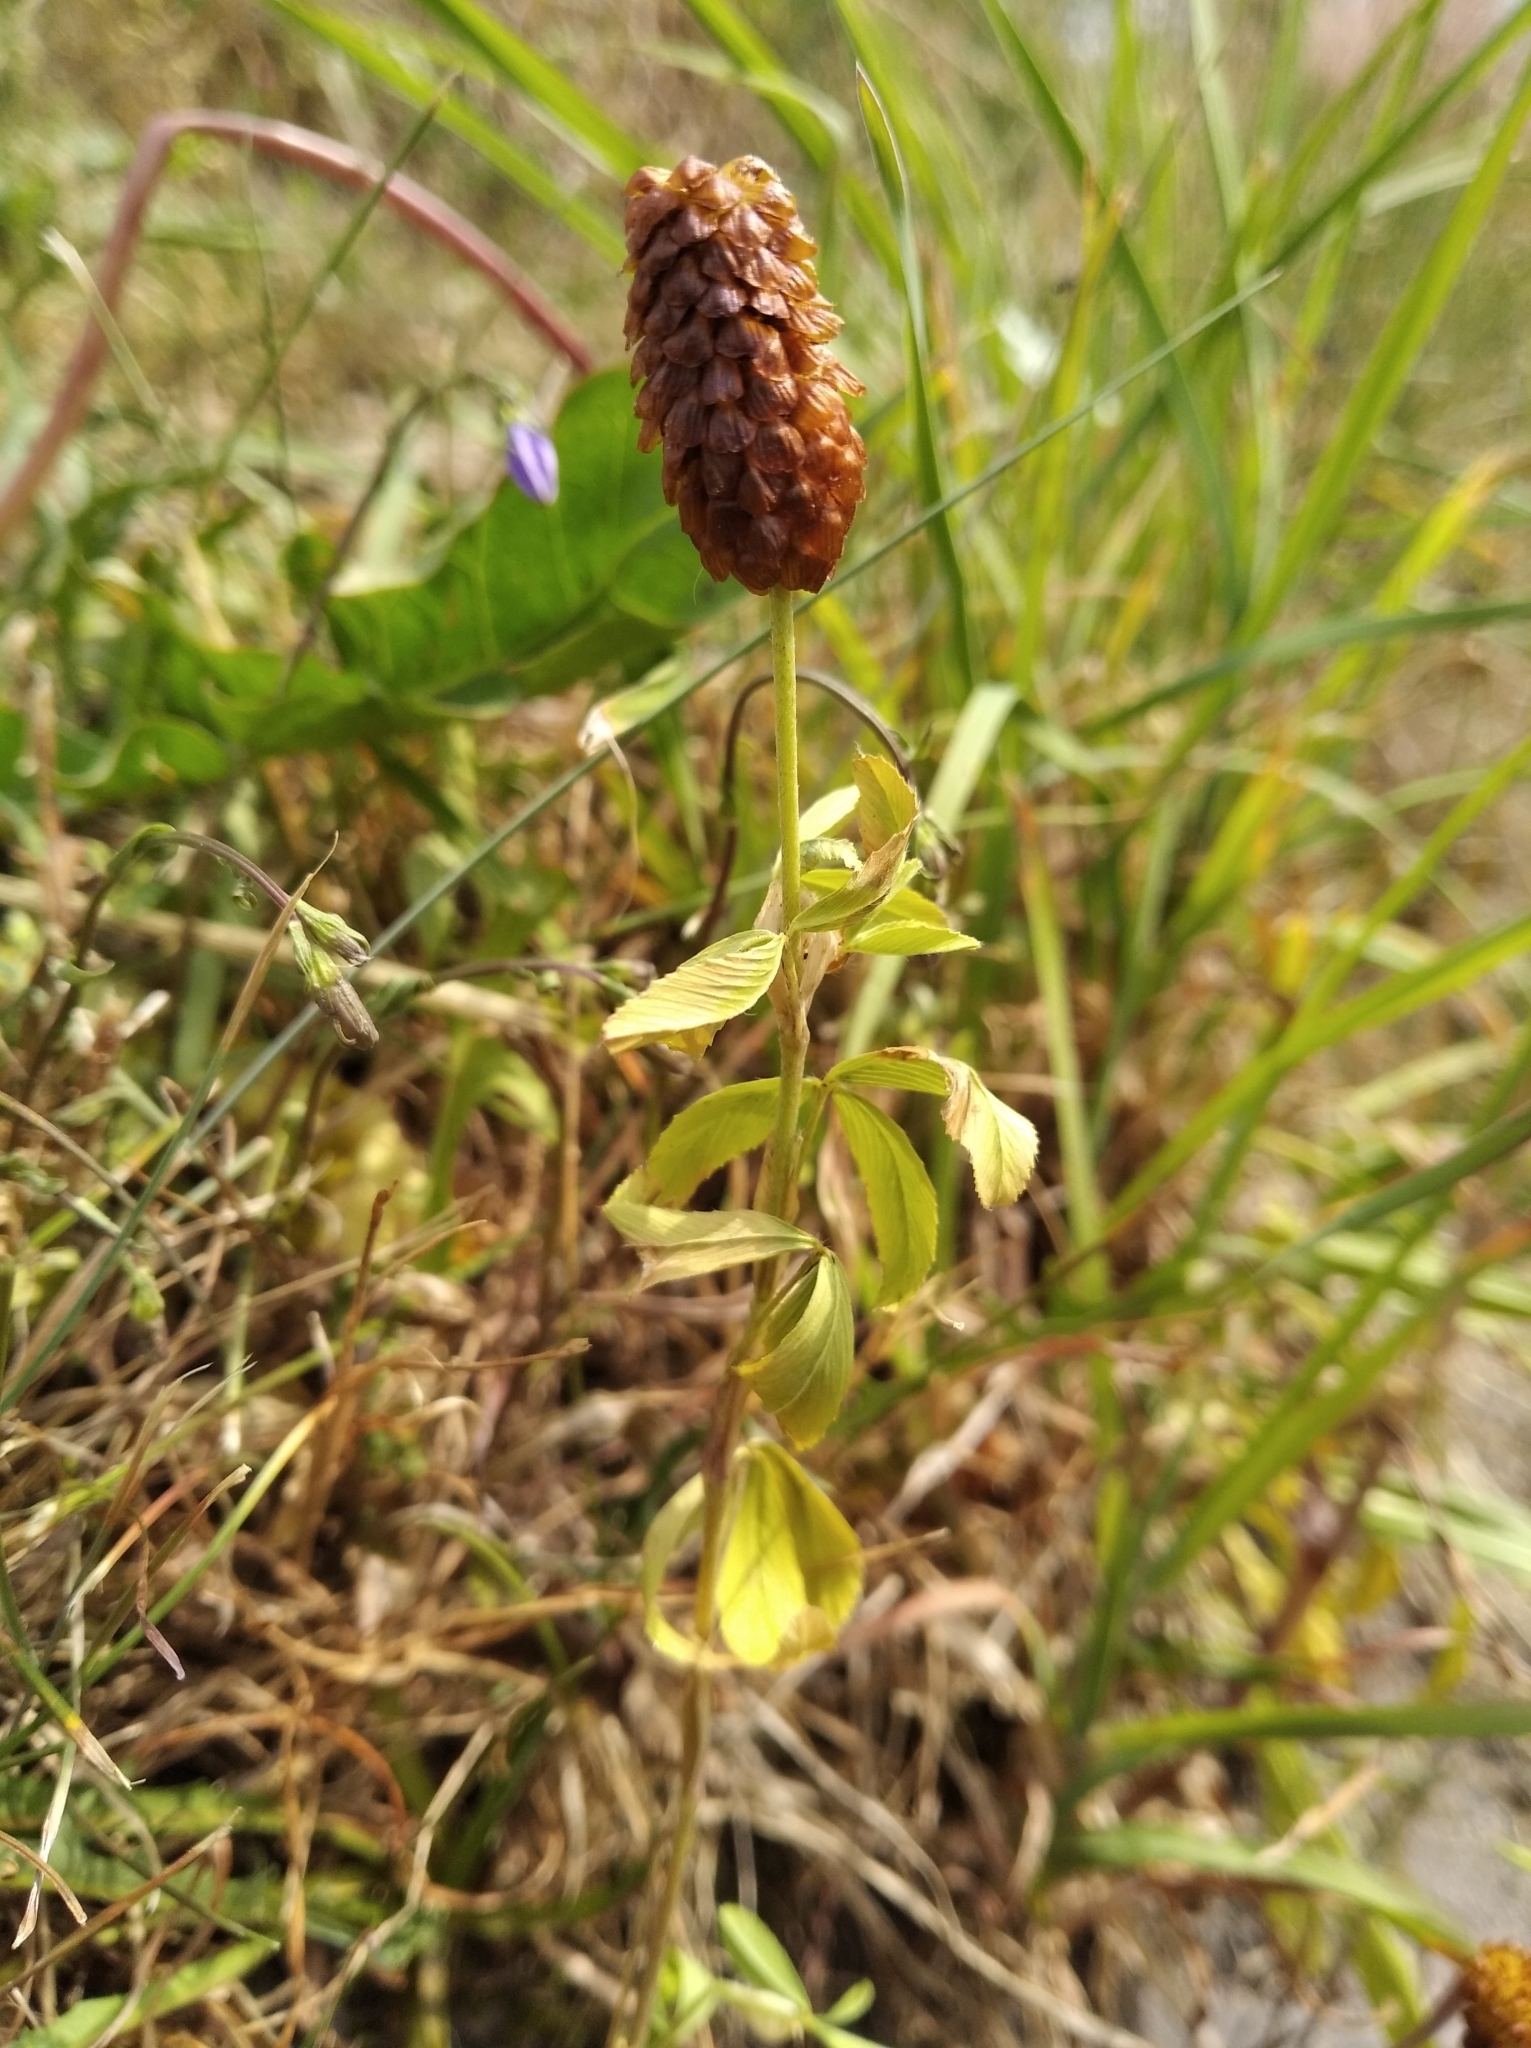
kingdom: Plantae
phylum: Tracheophyta
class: Magnoliopsida
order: Fabales
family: Fabaceae
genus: Trifolium
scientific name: Trifolium spadiceum
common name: Brown moor clover
